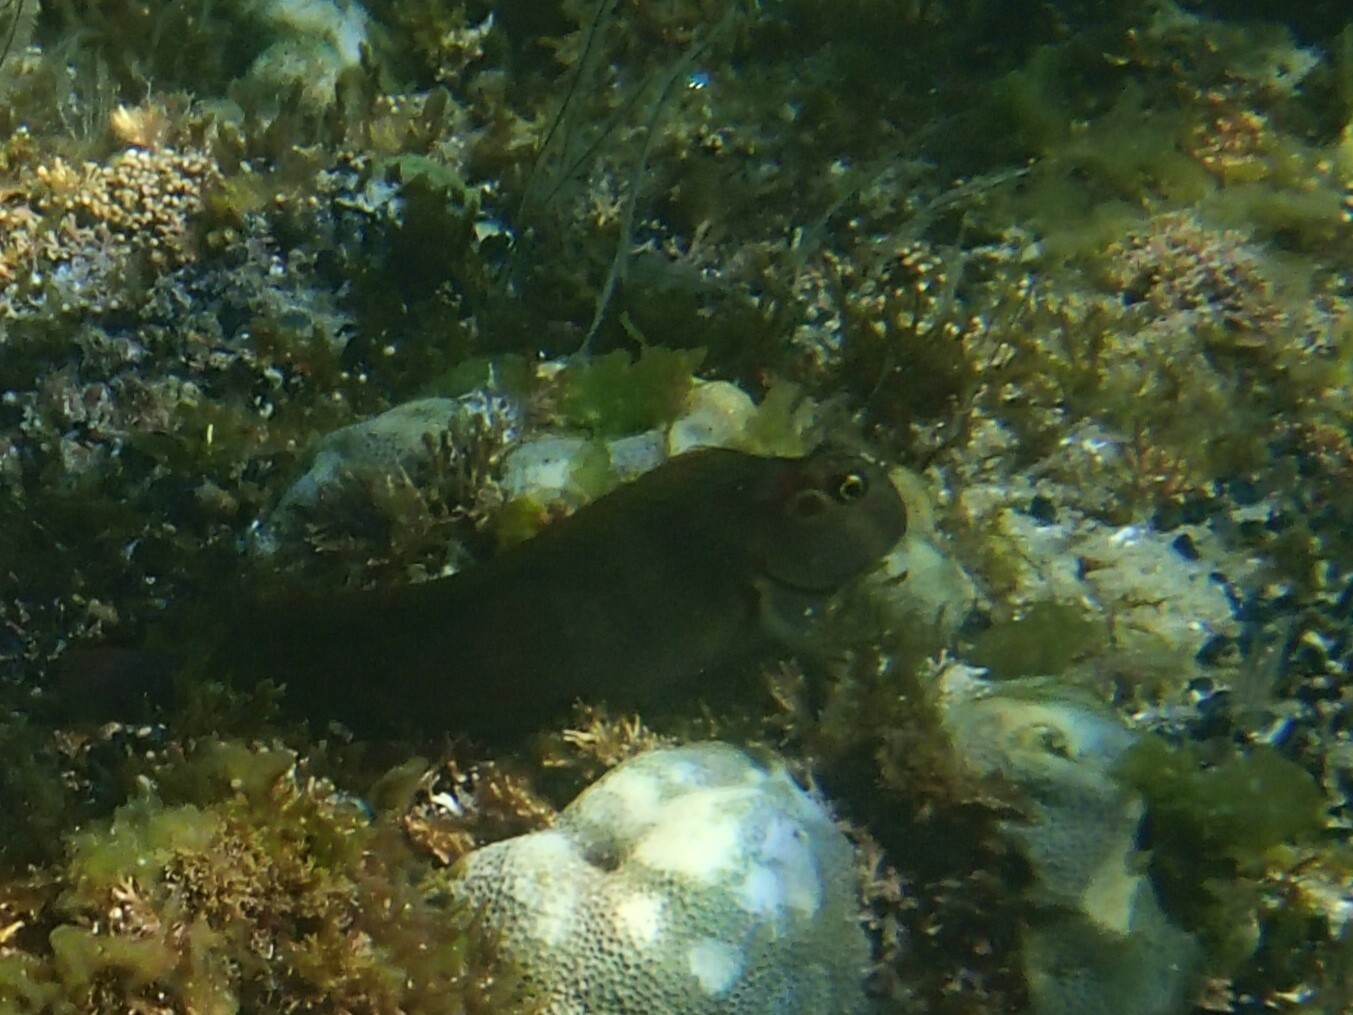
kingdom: Animalia
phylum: Chordata
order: Perciformes
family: Blenniidae
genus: Ophioblennius
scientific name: Ophioblennius steindachneri
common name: Panamic fanged blenny
